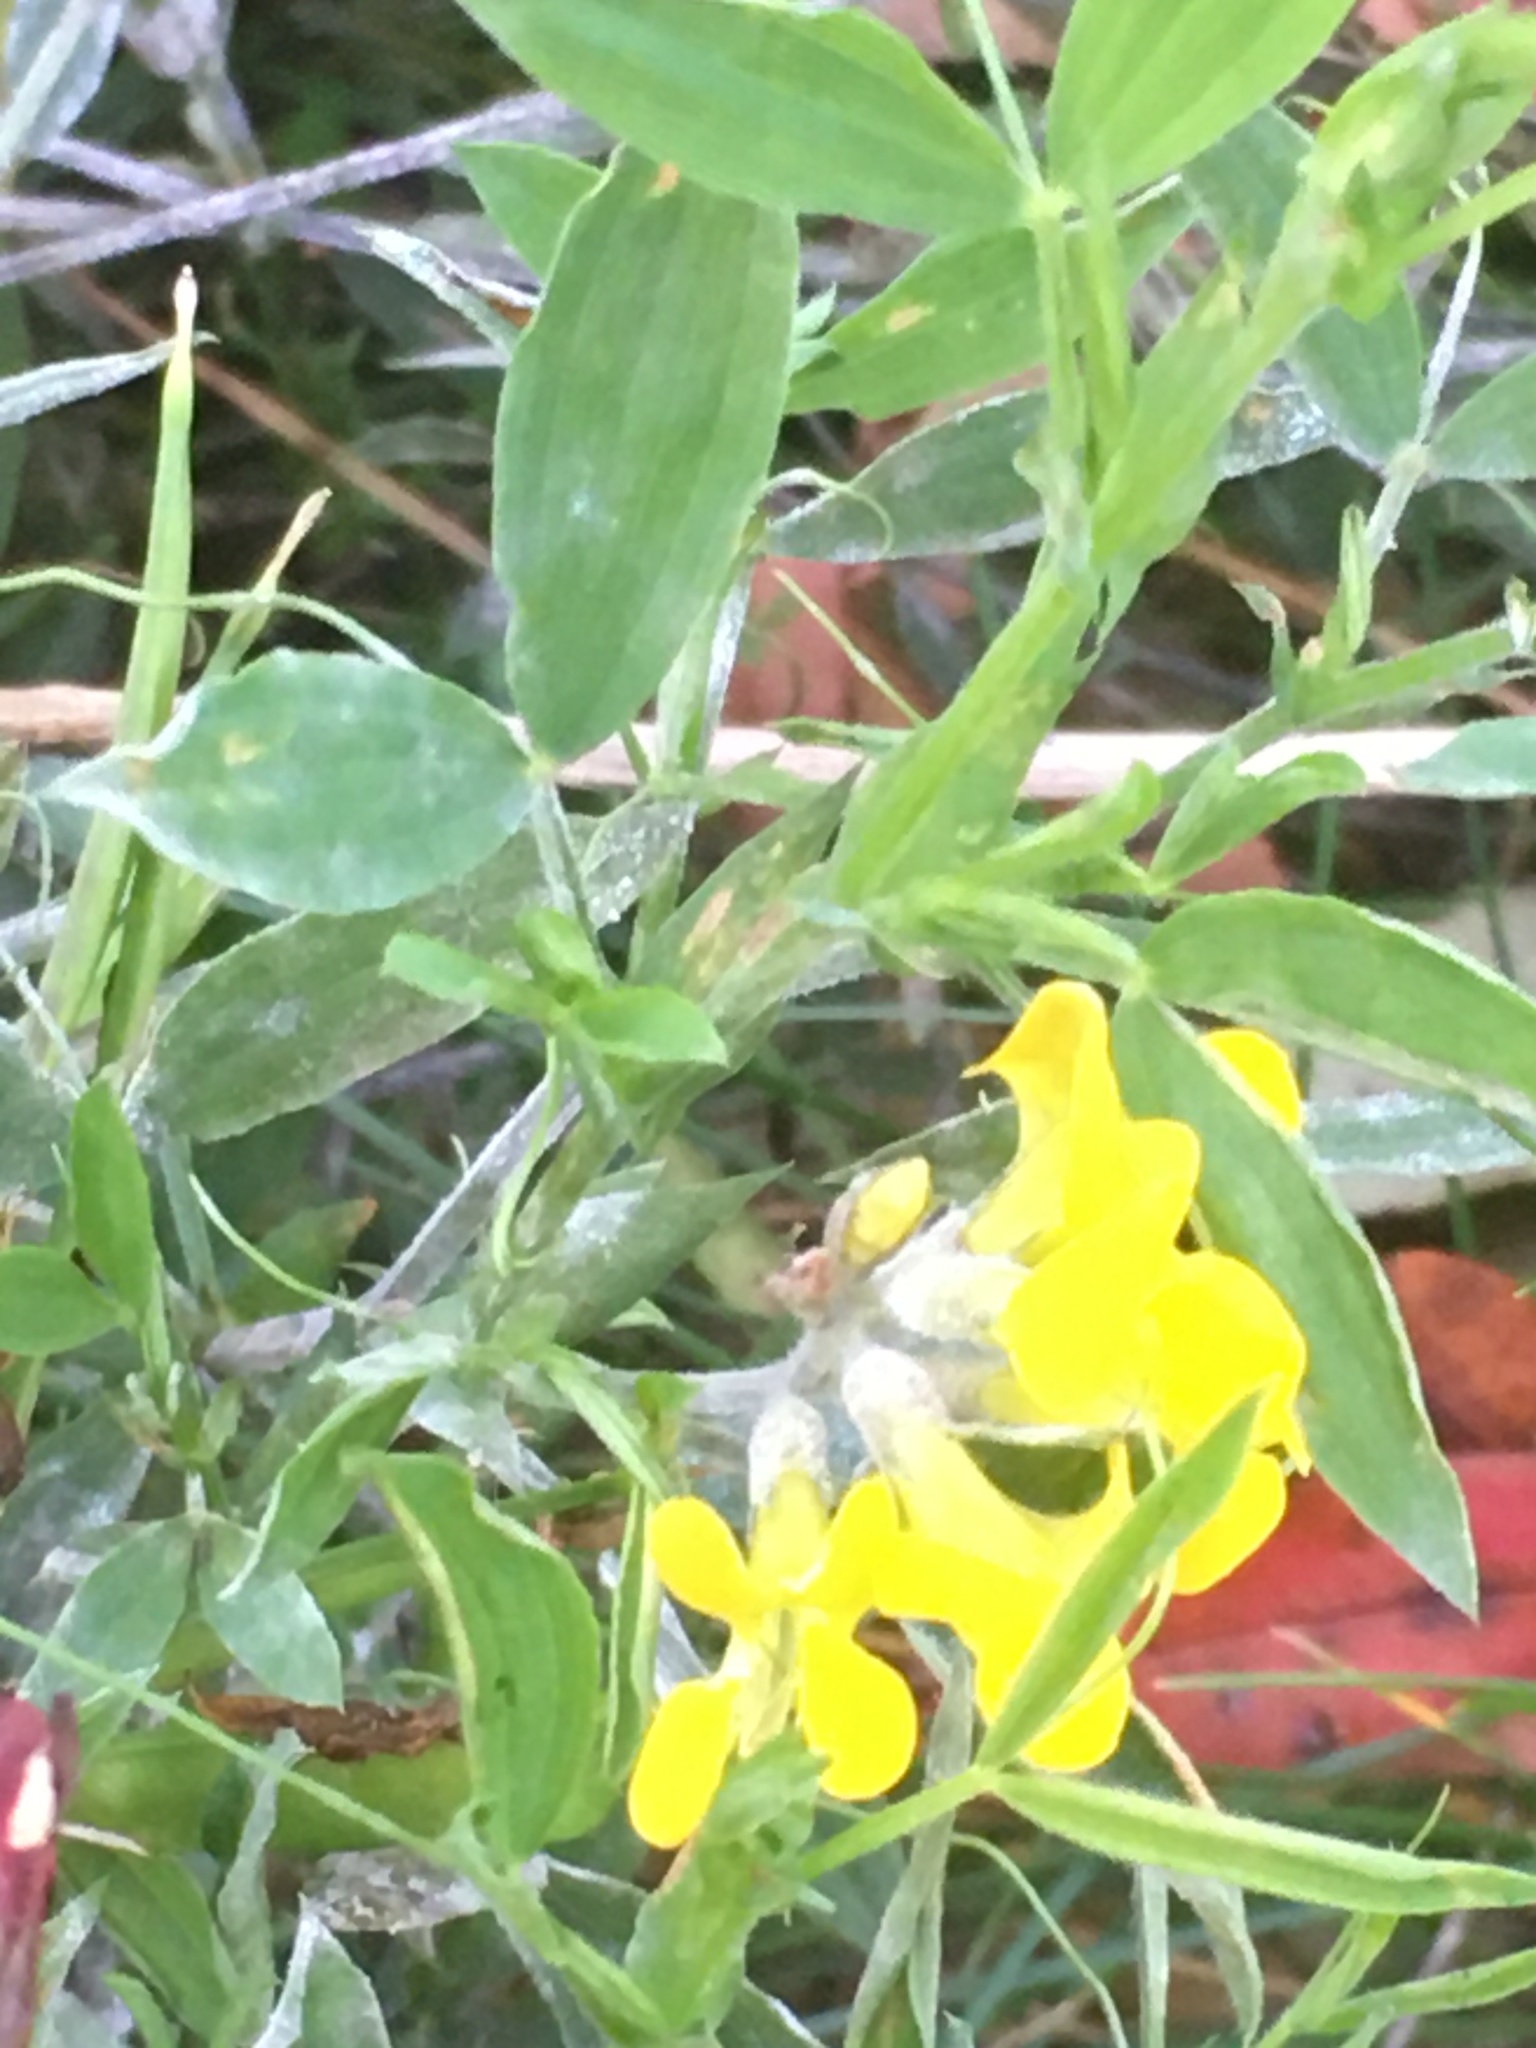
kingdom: Plantae
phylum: Tracheophyta
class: Magnoliopsida
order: Fabales
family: Fabaceae
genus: Lathyrus
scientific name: Lathyrus pratensis
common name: Meadow vetchling
